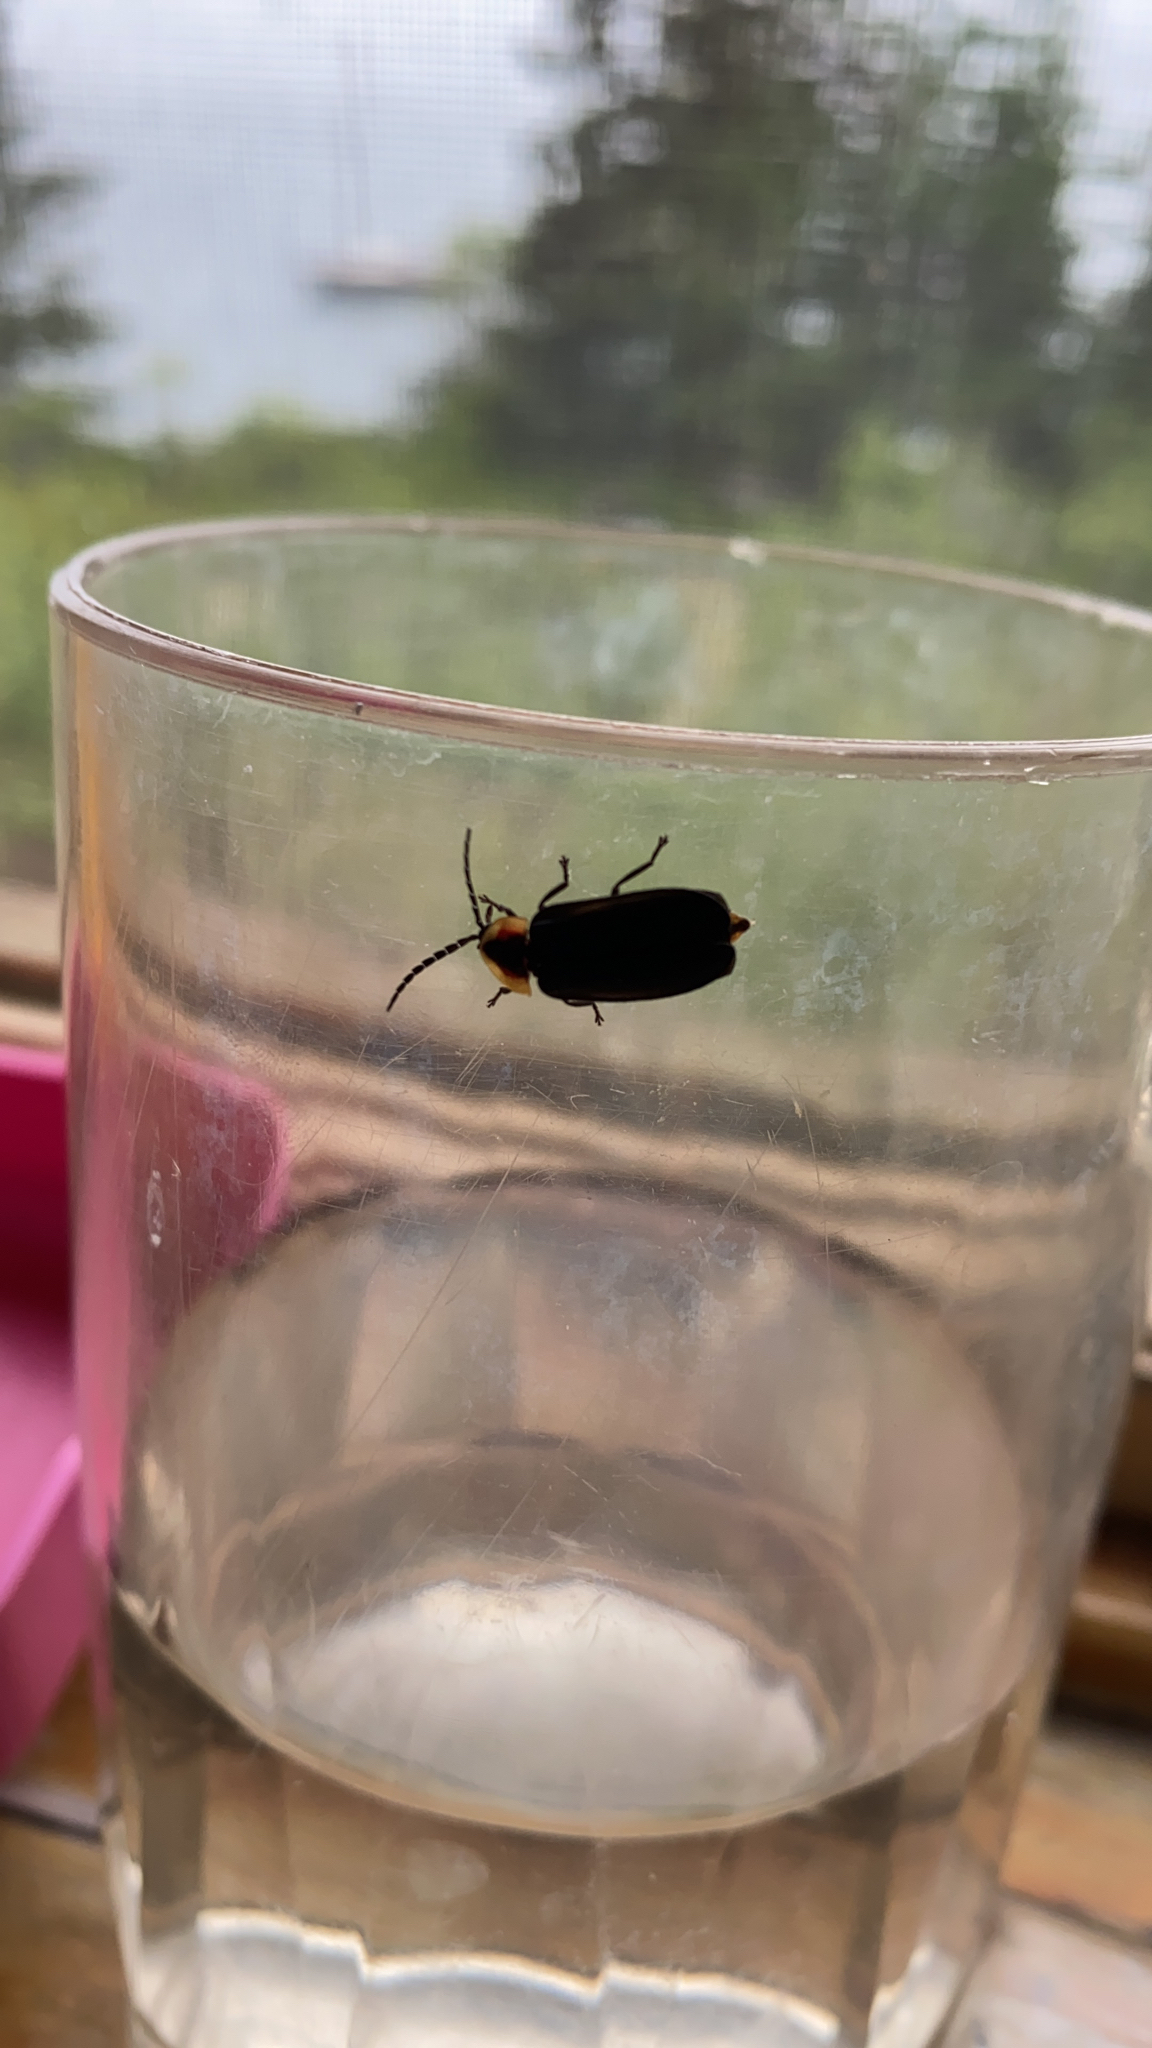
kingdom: Animalia
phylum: Arthropoda
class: Insecta
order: Coleoptera
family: Lampyridae
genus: Lucidota
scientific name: Lucidota atra
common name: Black firefly
